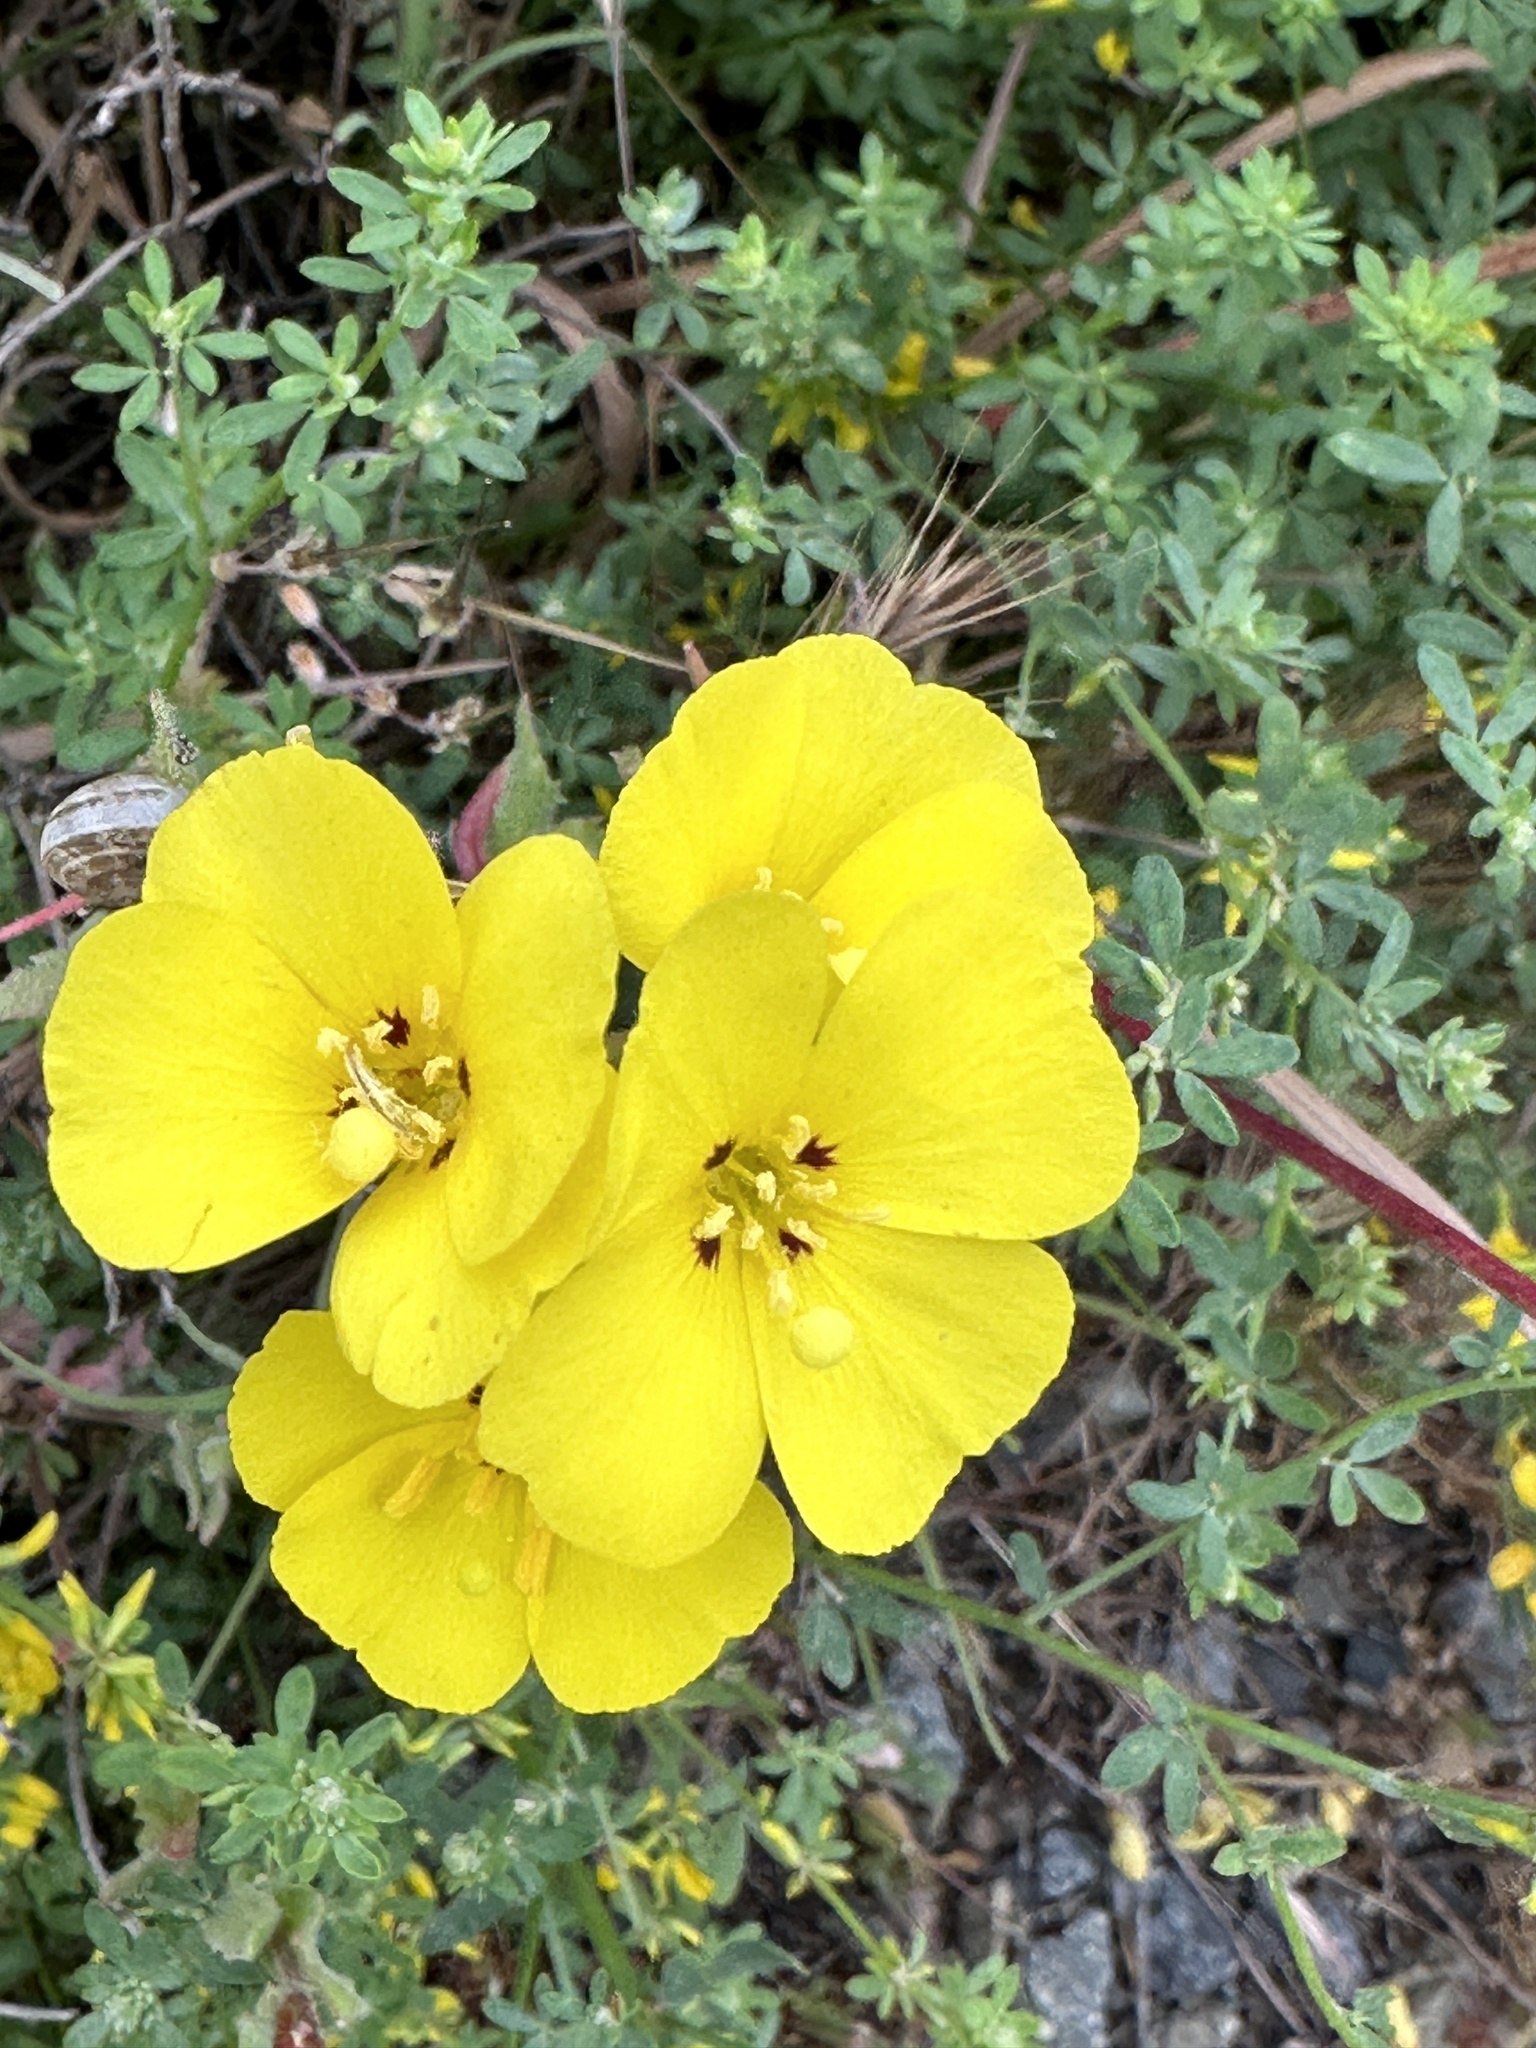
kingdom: Plantae
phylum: Tracheophyta
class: Magnoliopsida
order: Myrtales
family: Onagraceae
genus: Camissoniopsis
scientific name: Camissoniopsis bistorta
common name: Southern suncup
